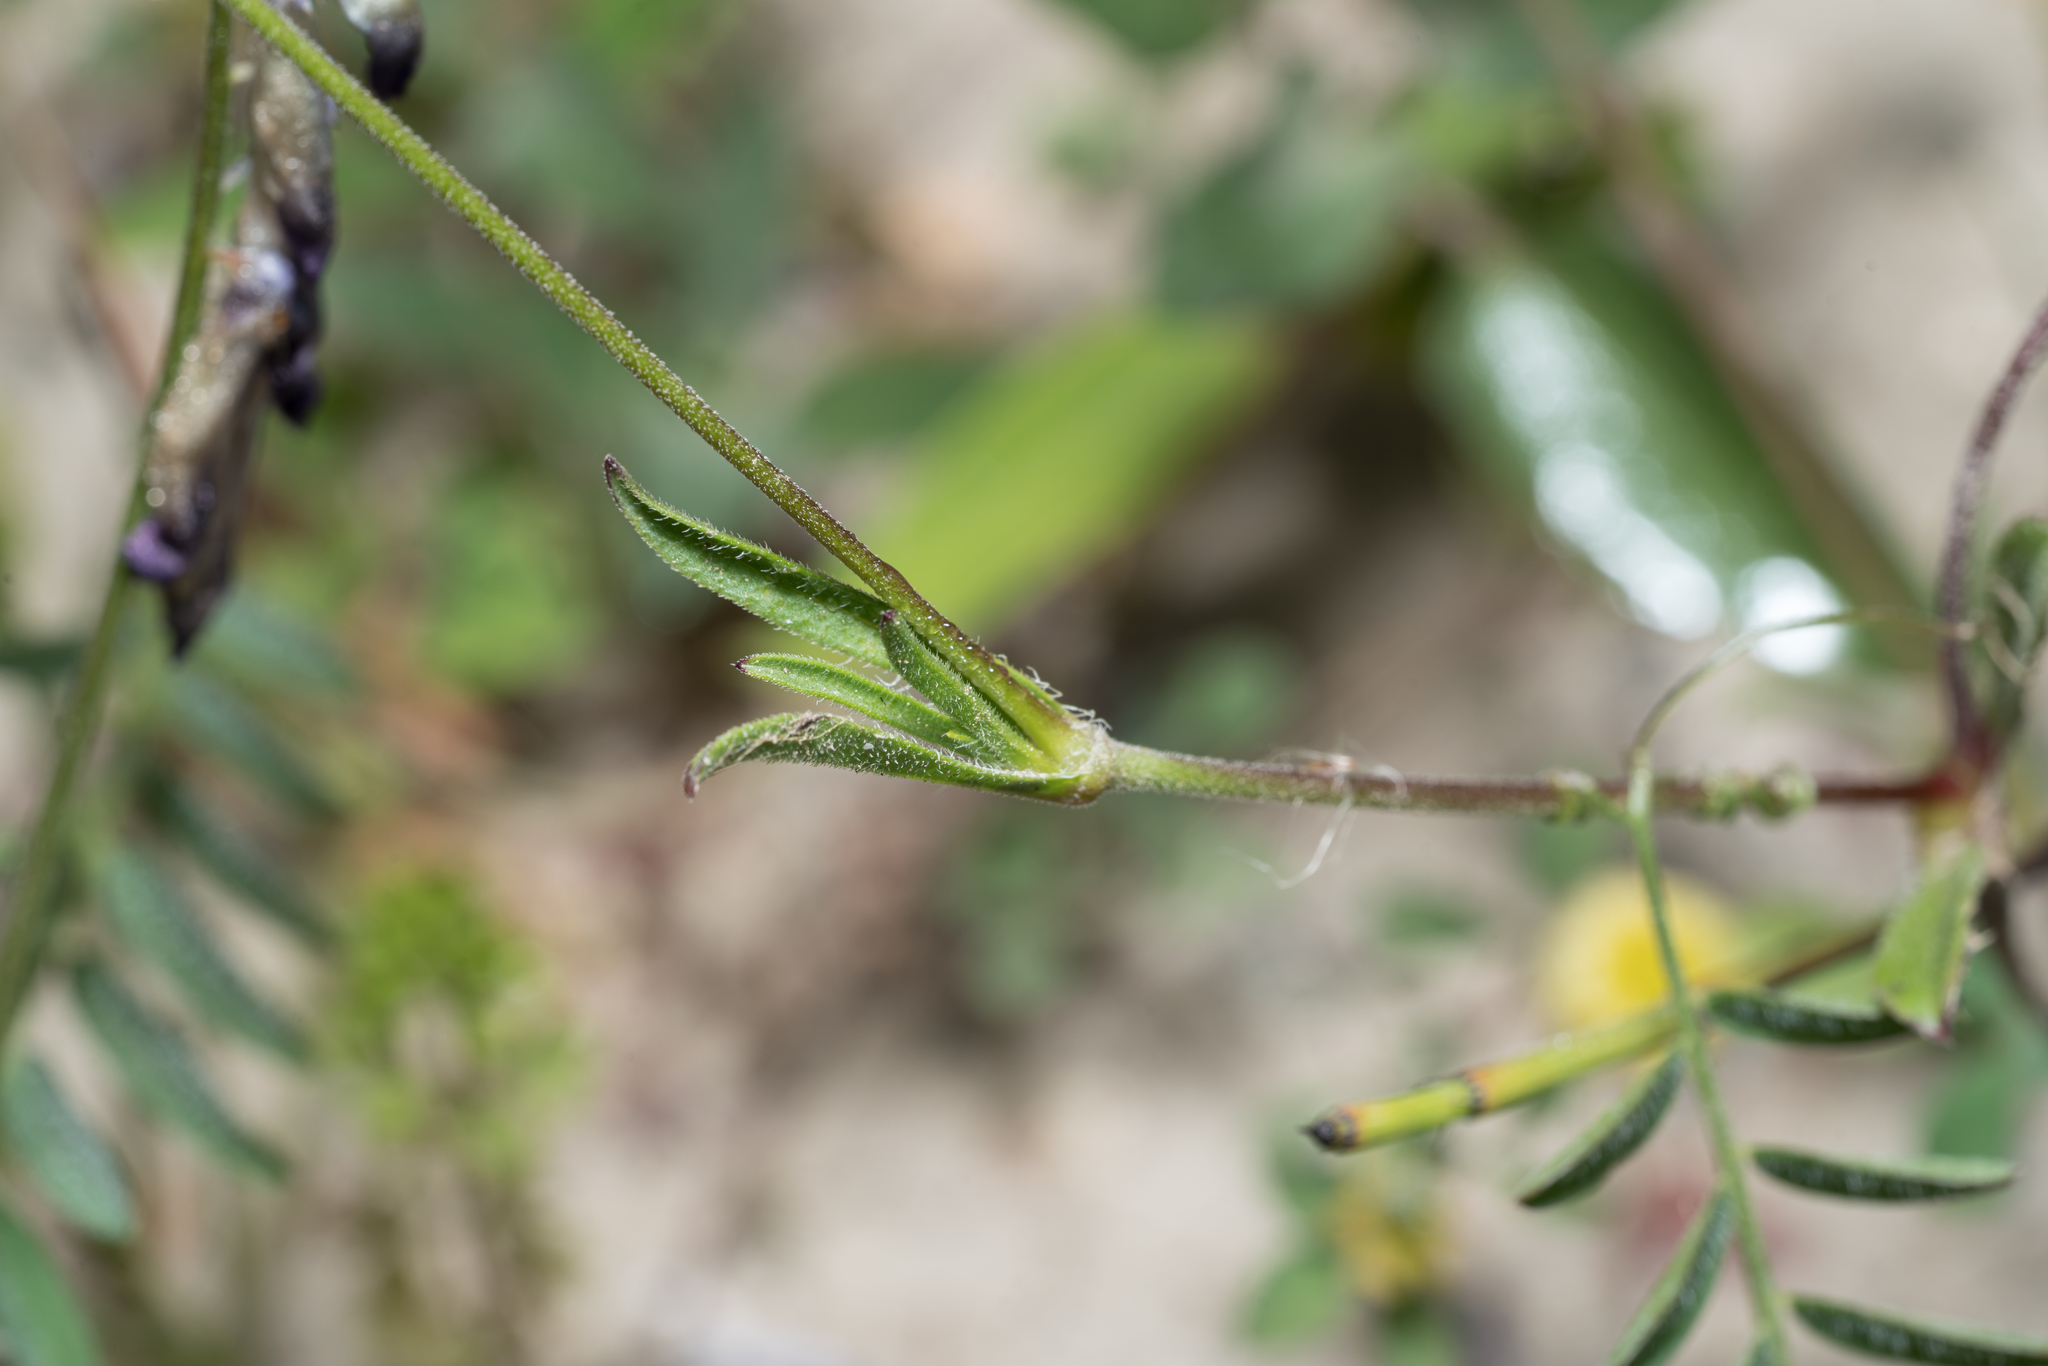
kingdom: Plantae
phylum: Tracheophyta
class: Magnoliopsida
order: Caryophyllales
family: Caryophyllaceae
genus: Silene
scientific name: Silene nocturna
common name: Mediterranean catchfly
